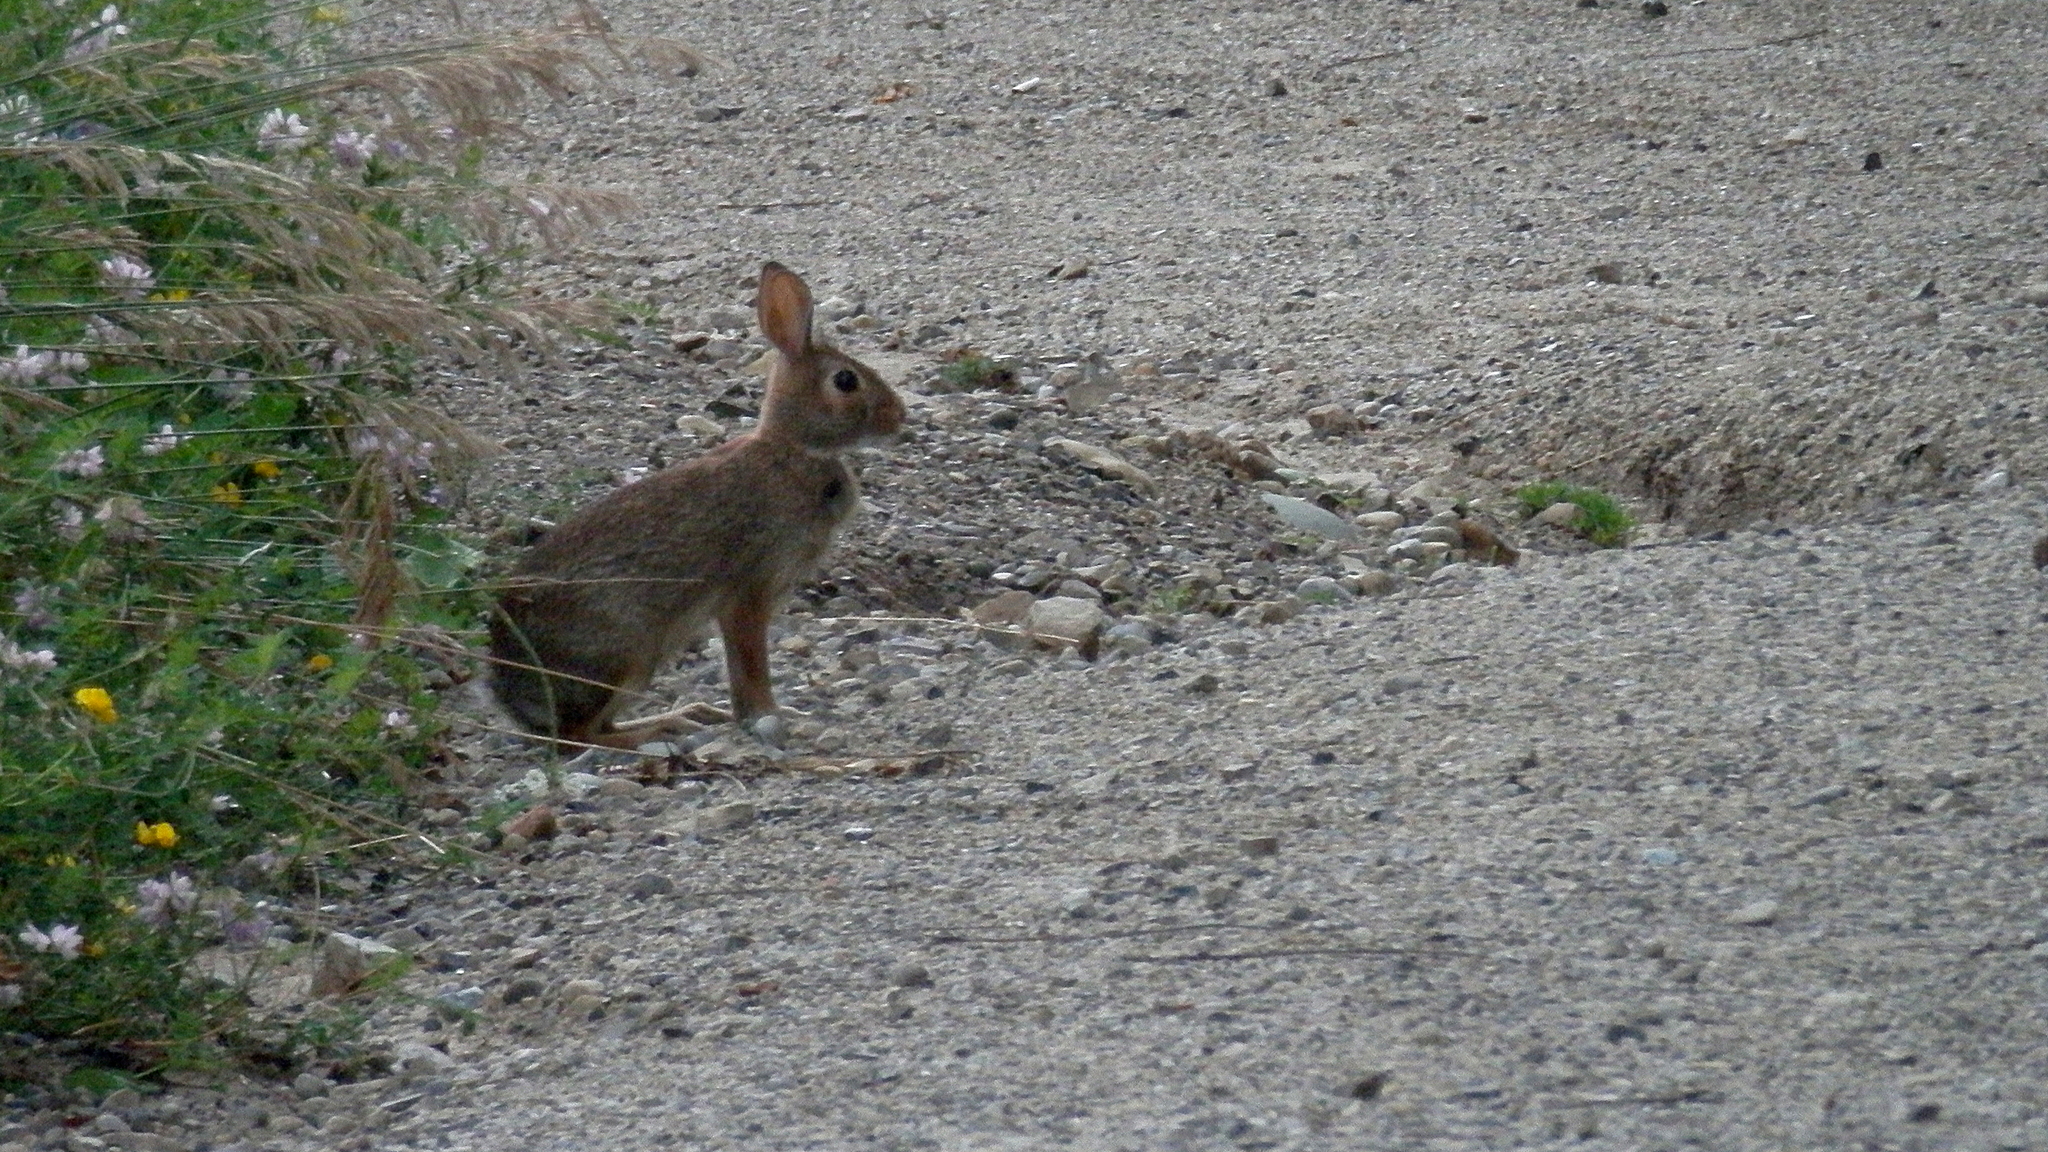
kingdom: Animalia
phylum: Chordata
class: Mammalia
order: Lagomorpha
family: Leporidae
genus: Sylvilagus
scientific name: Sylvilagus floridanus
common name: Eastern cottontail
